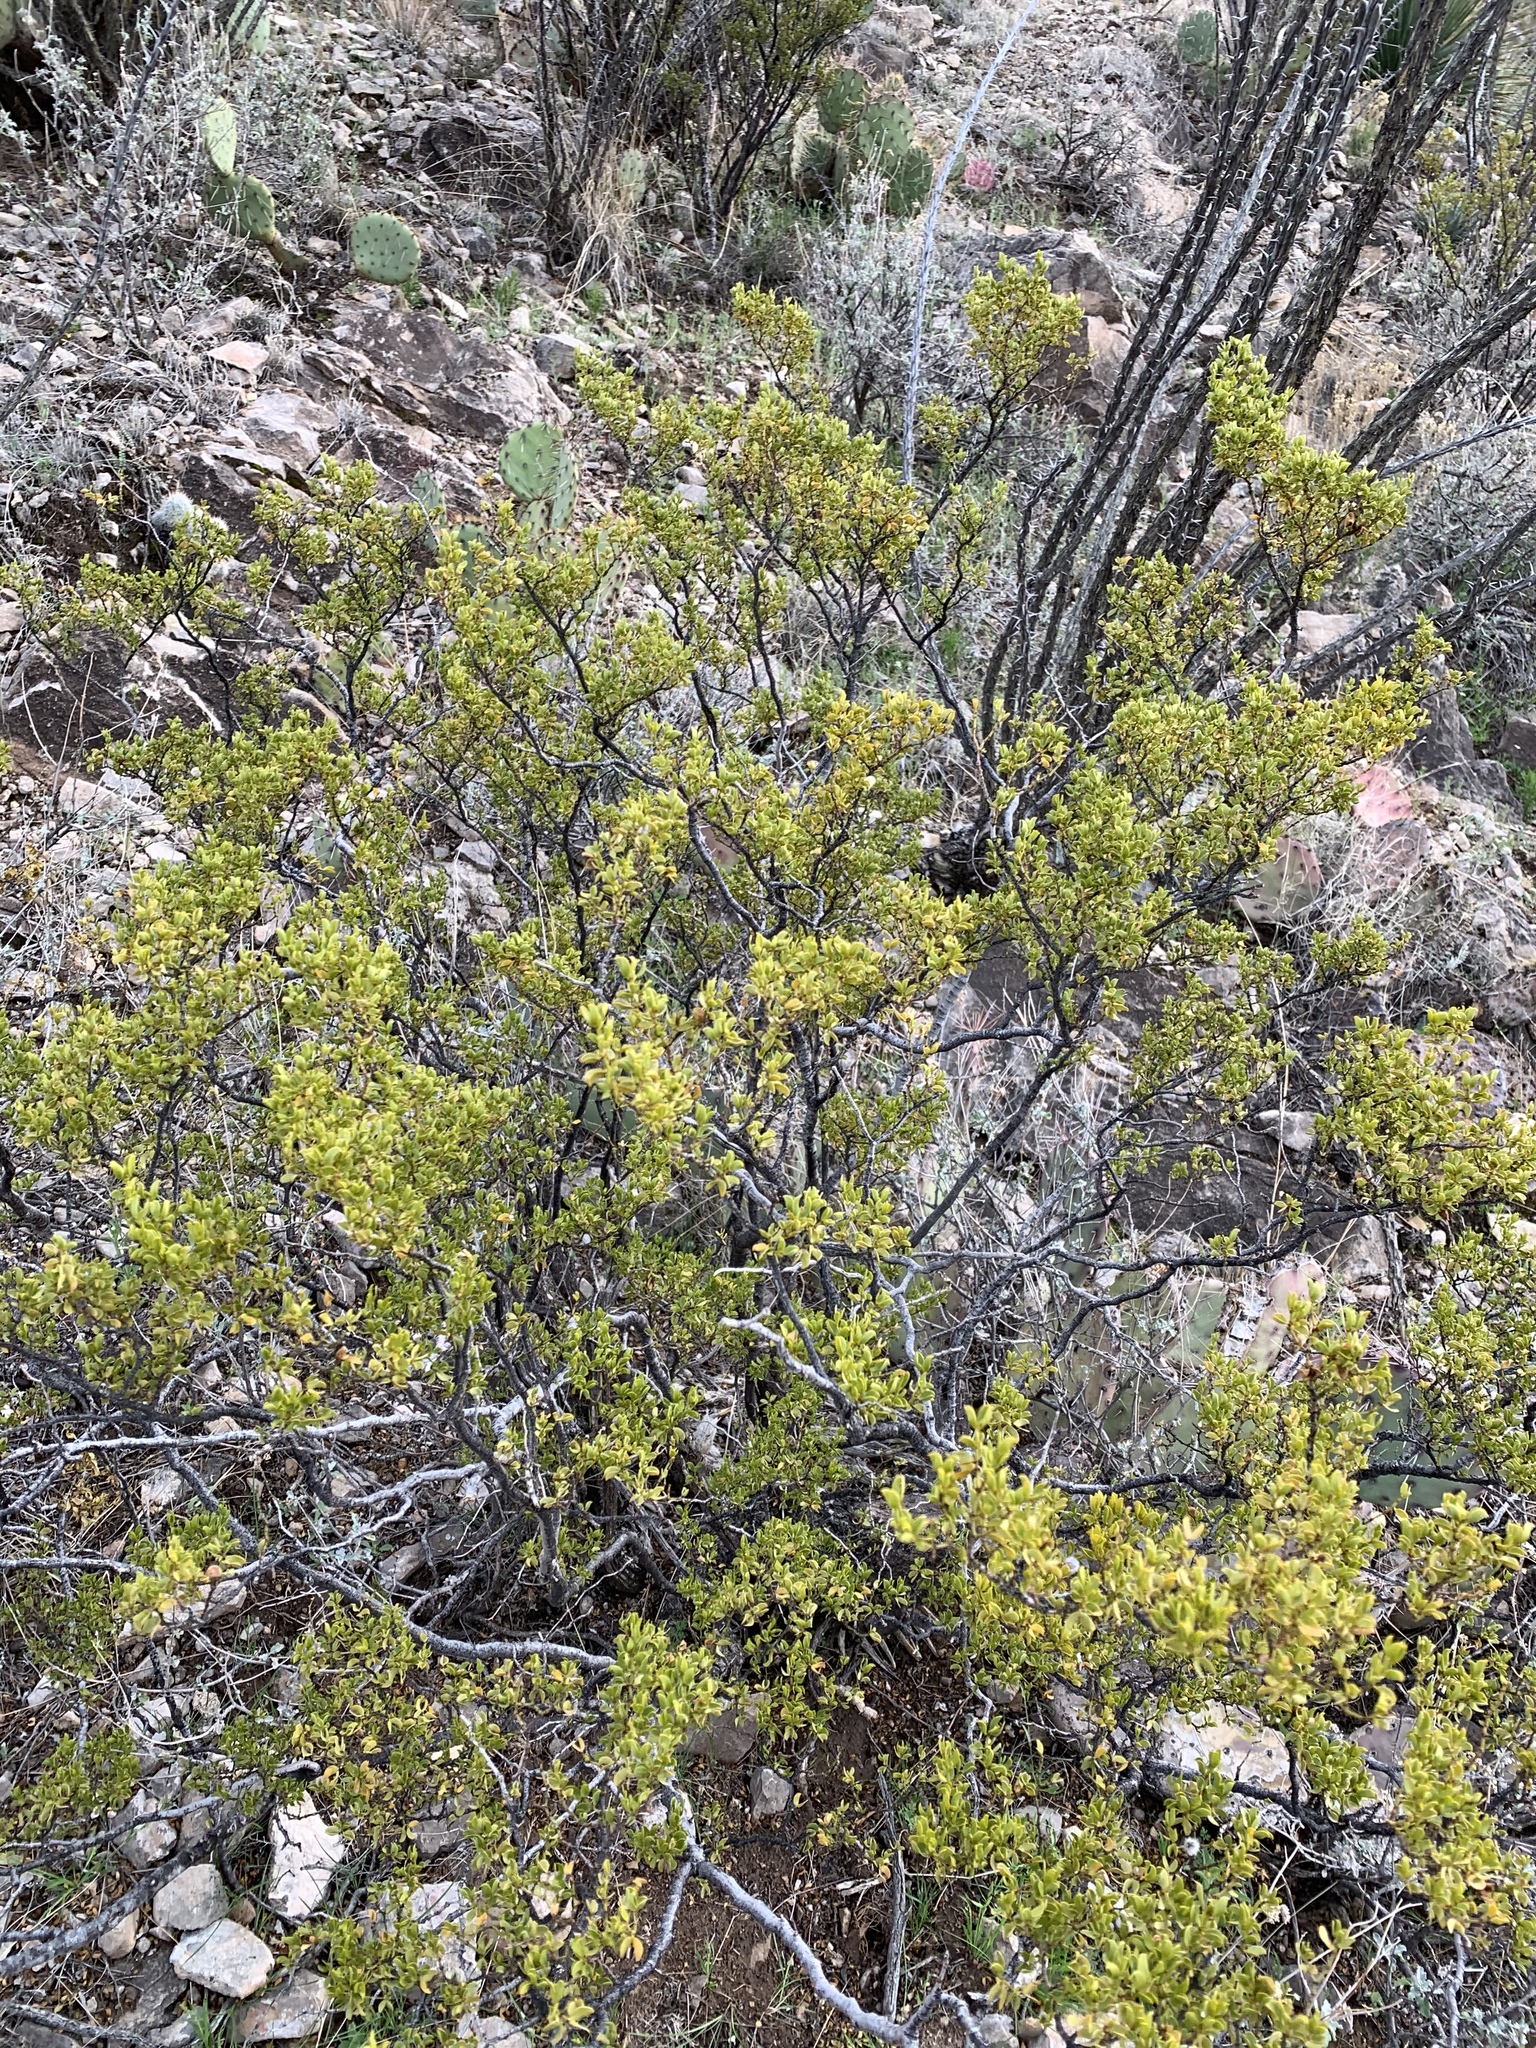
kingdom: Plantae
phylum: Tracheophyta
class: Magnoliopsida
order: Zygophyllales
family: Zygophyllaceae
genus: Larrea
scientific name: Larrea tridentata
